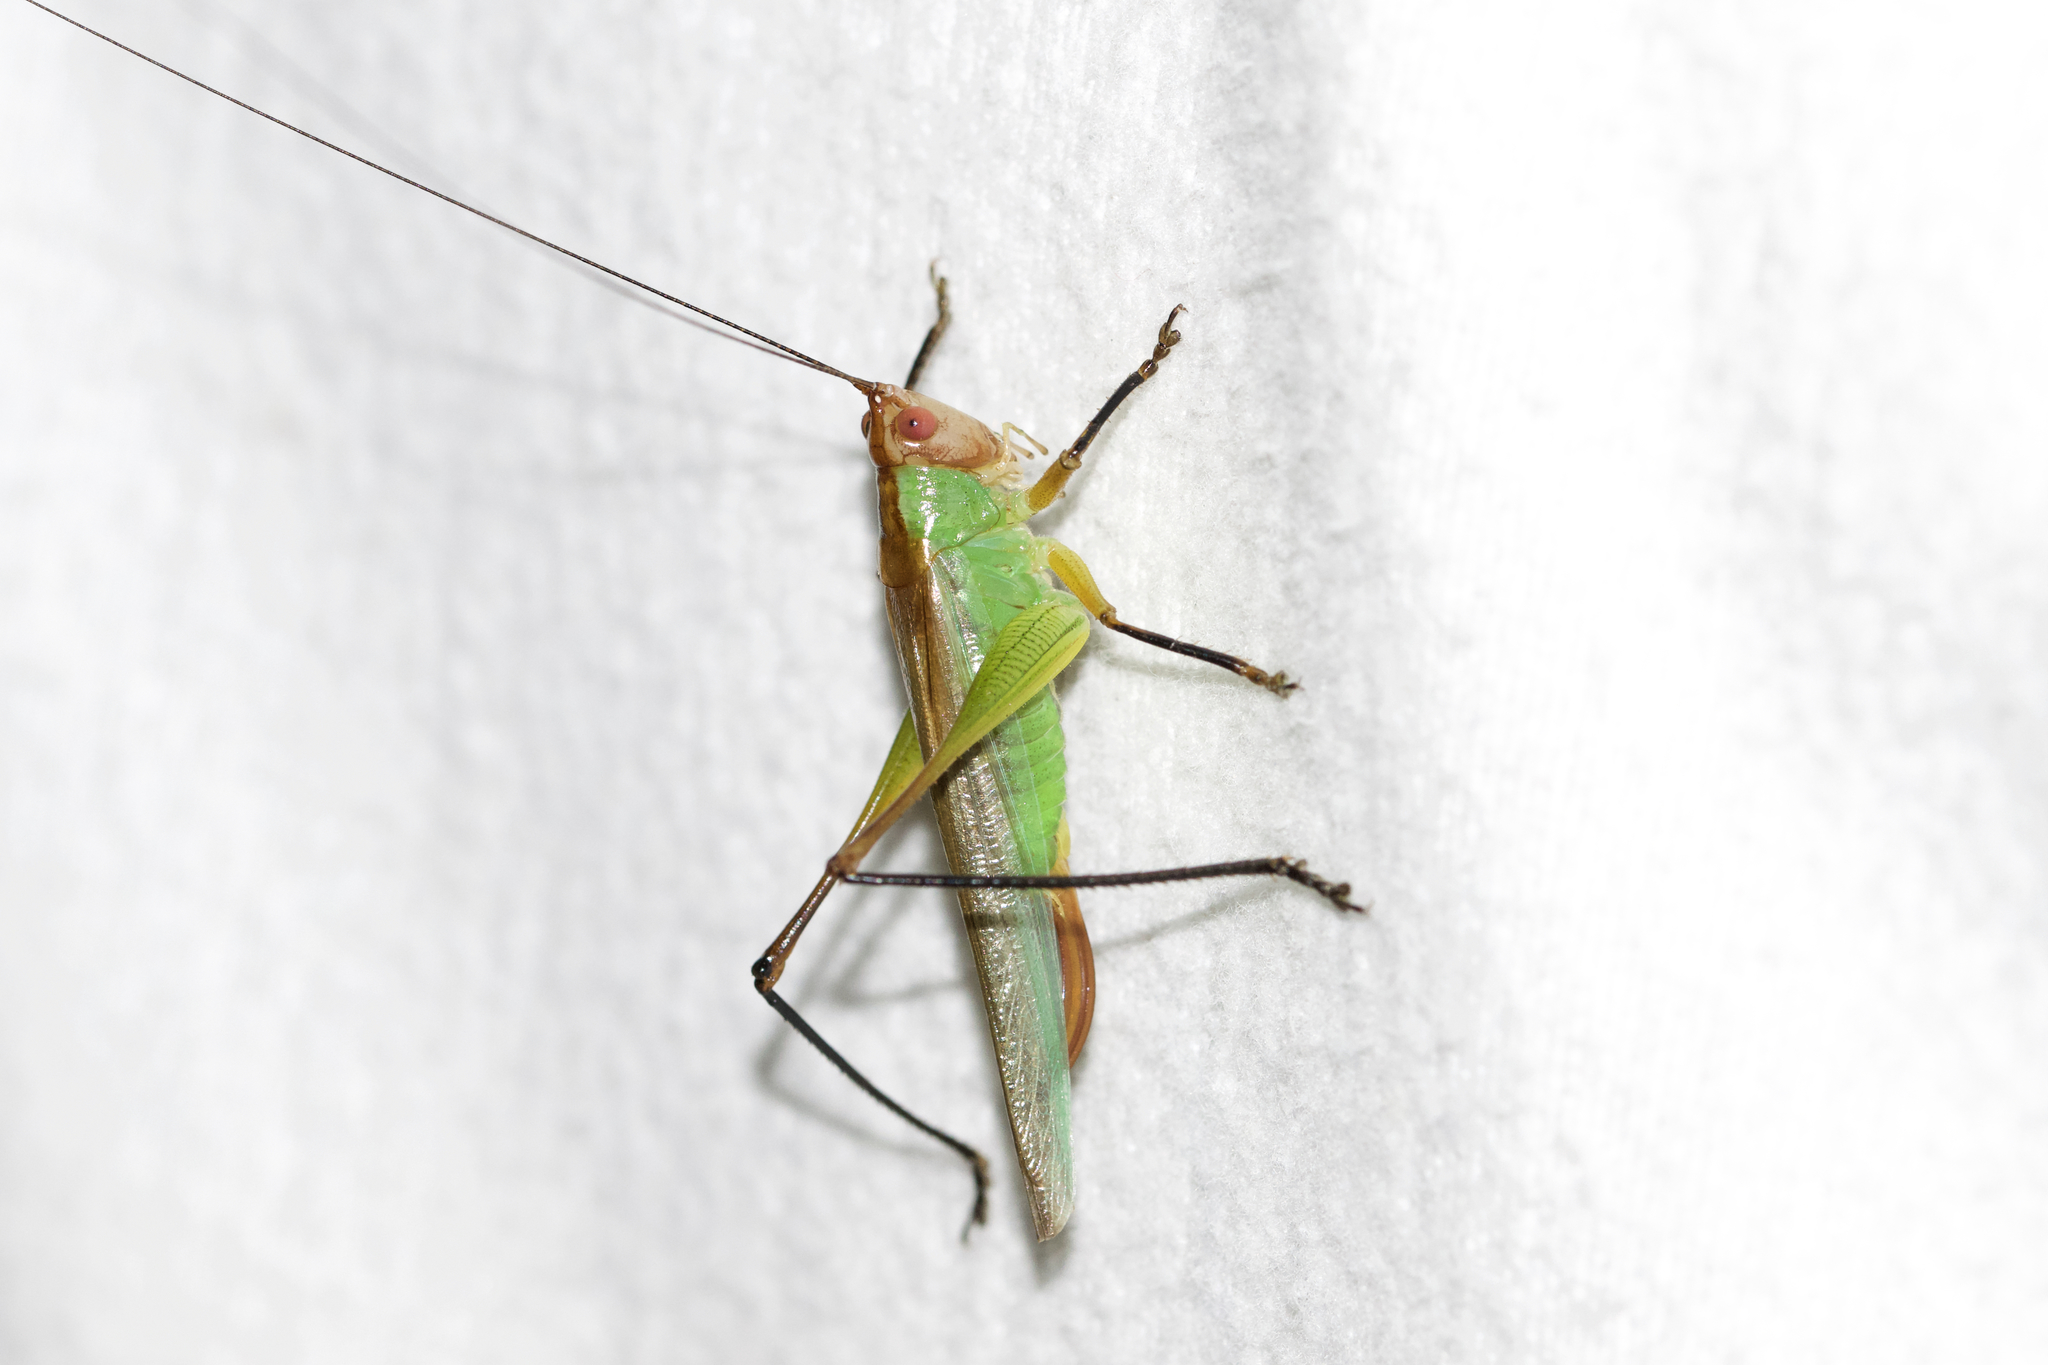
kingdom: Animalia
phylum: Arthropoda
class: Insecta
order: Orthoptera
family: Tettigoniidae
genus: Orchelimum
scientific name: Orchelimum nigripes
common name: Black-legged meadow katydid
